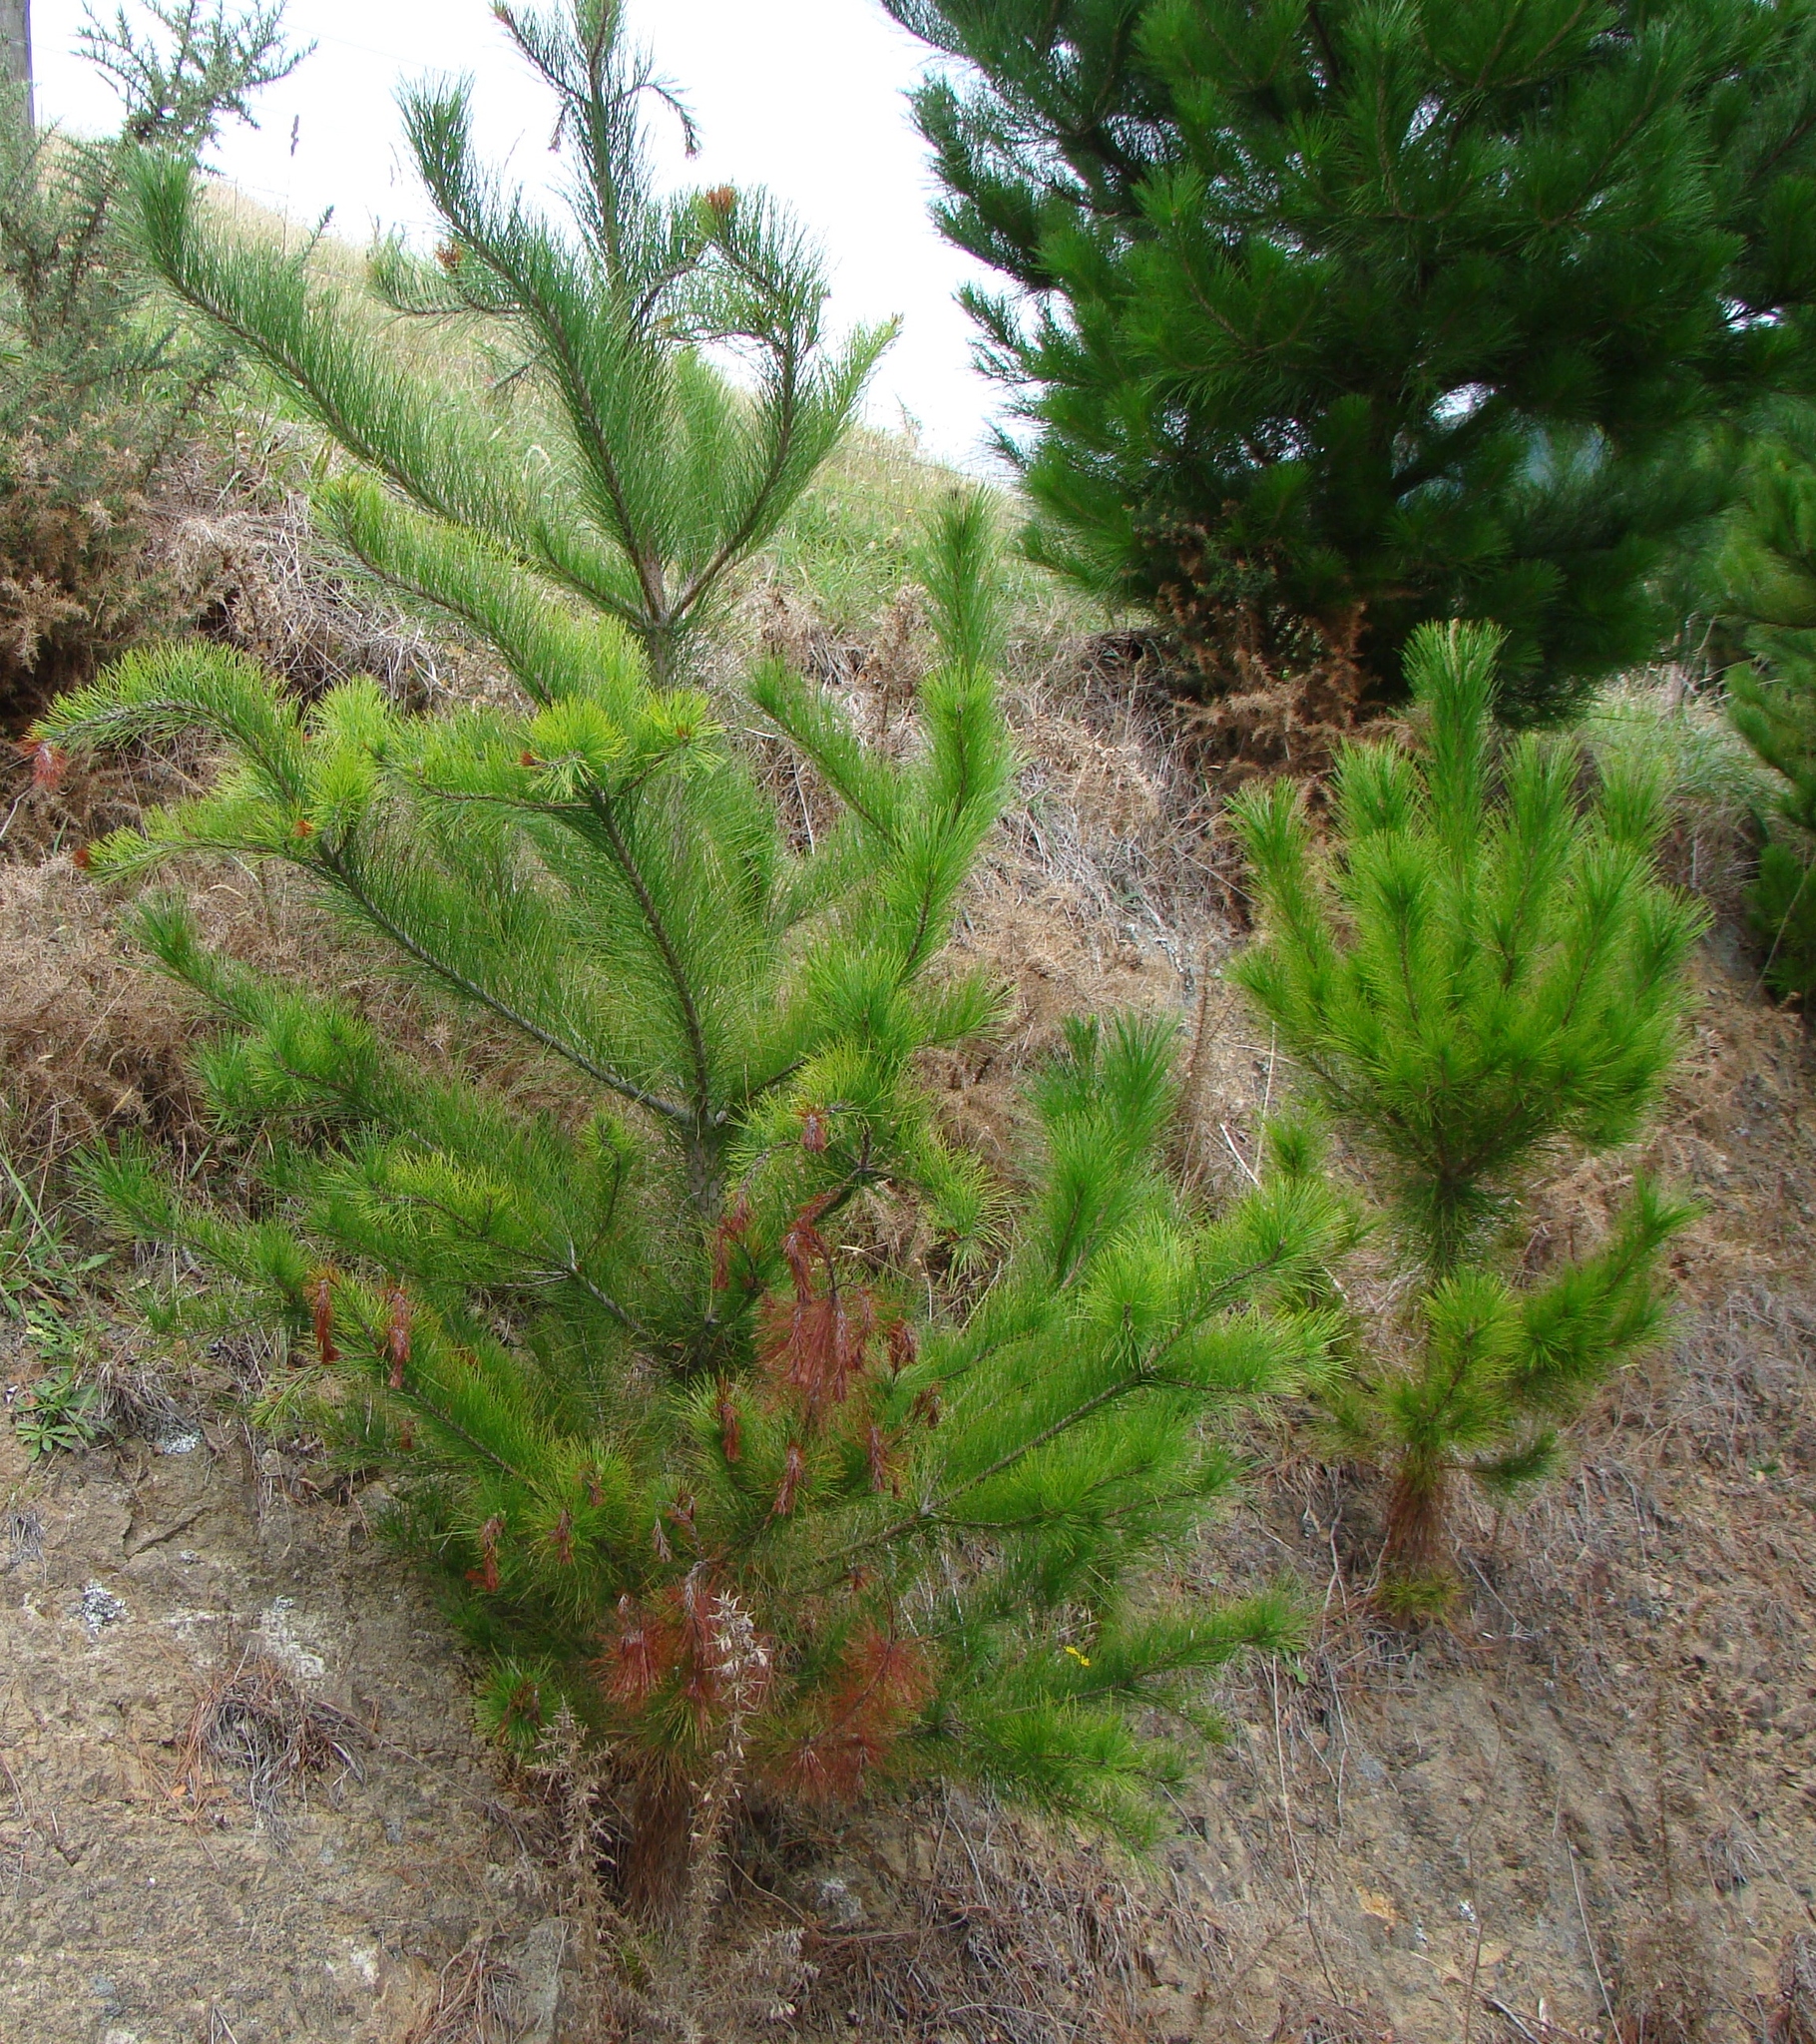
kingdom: Plantae
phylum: Tracheophyta
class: Pinopsida
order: Pinales
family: Pinaceae
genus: Pinus
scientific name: Pinus radiata
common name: Monterey pine
